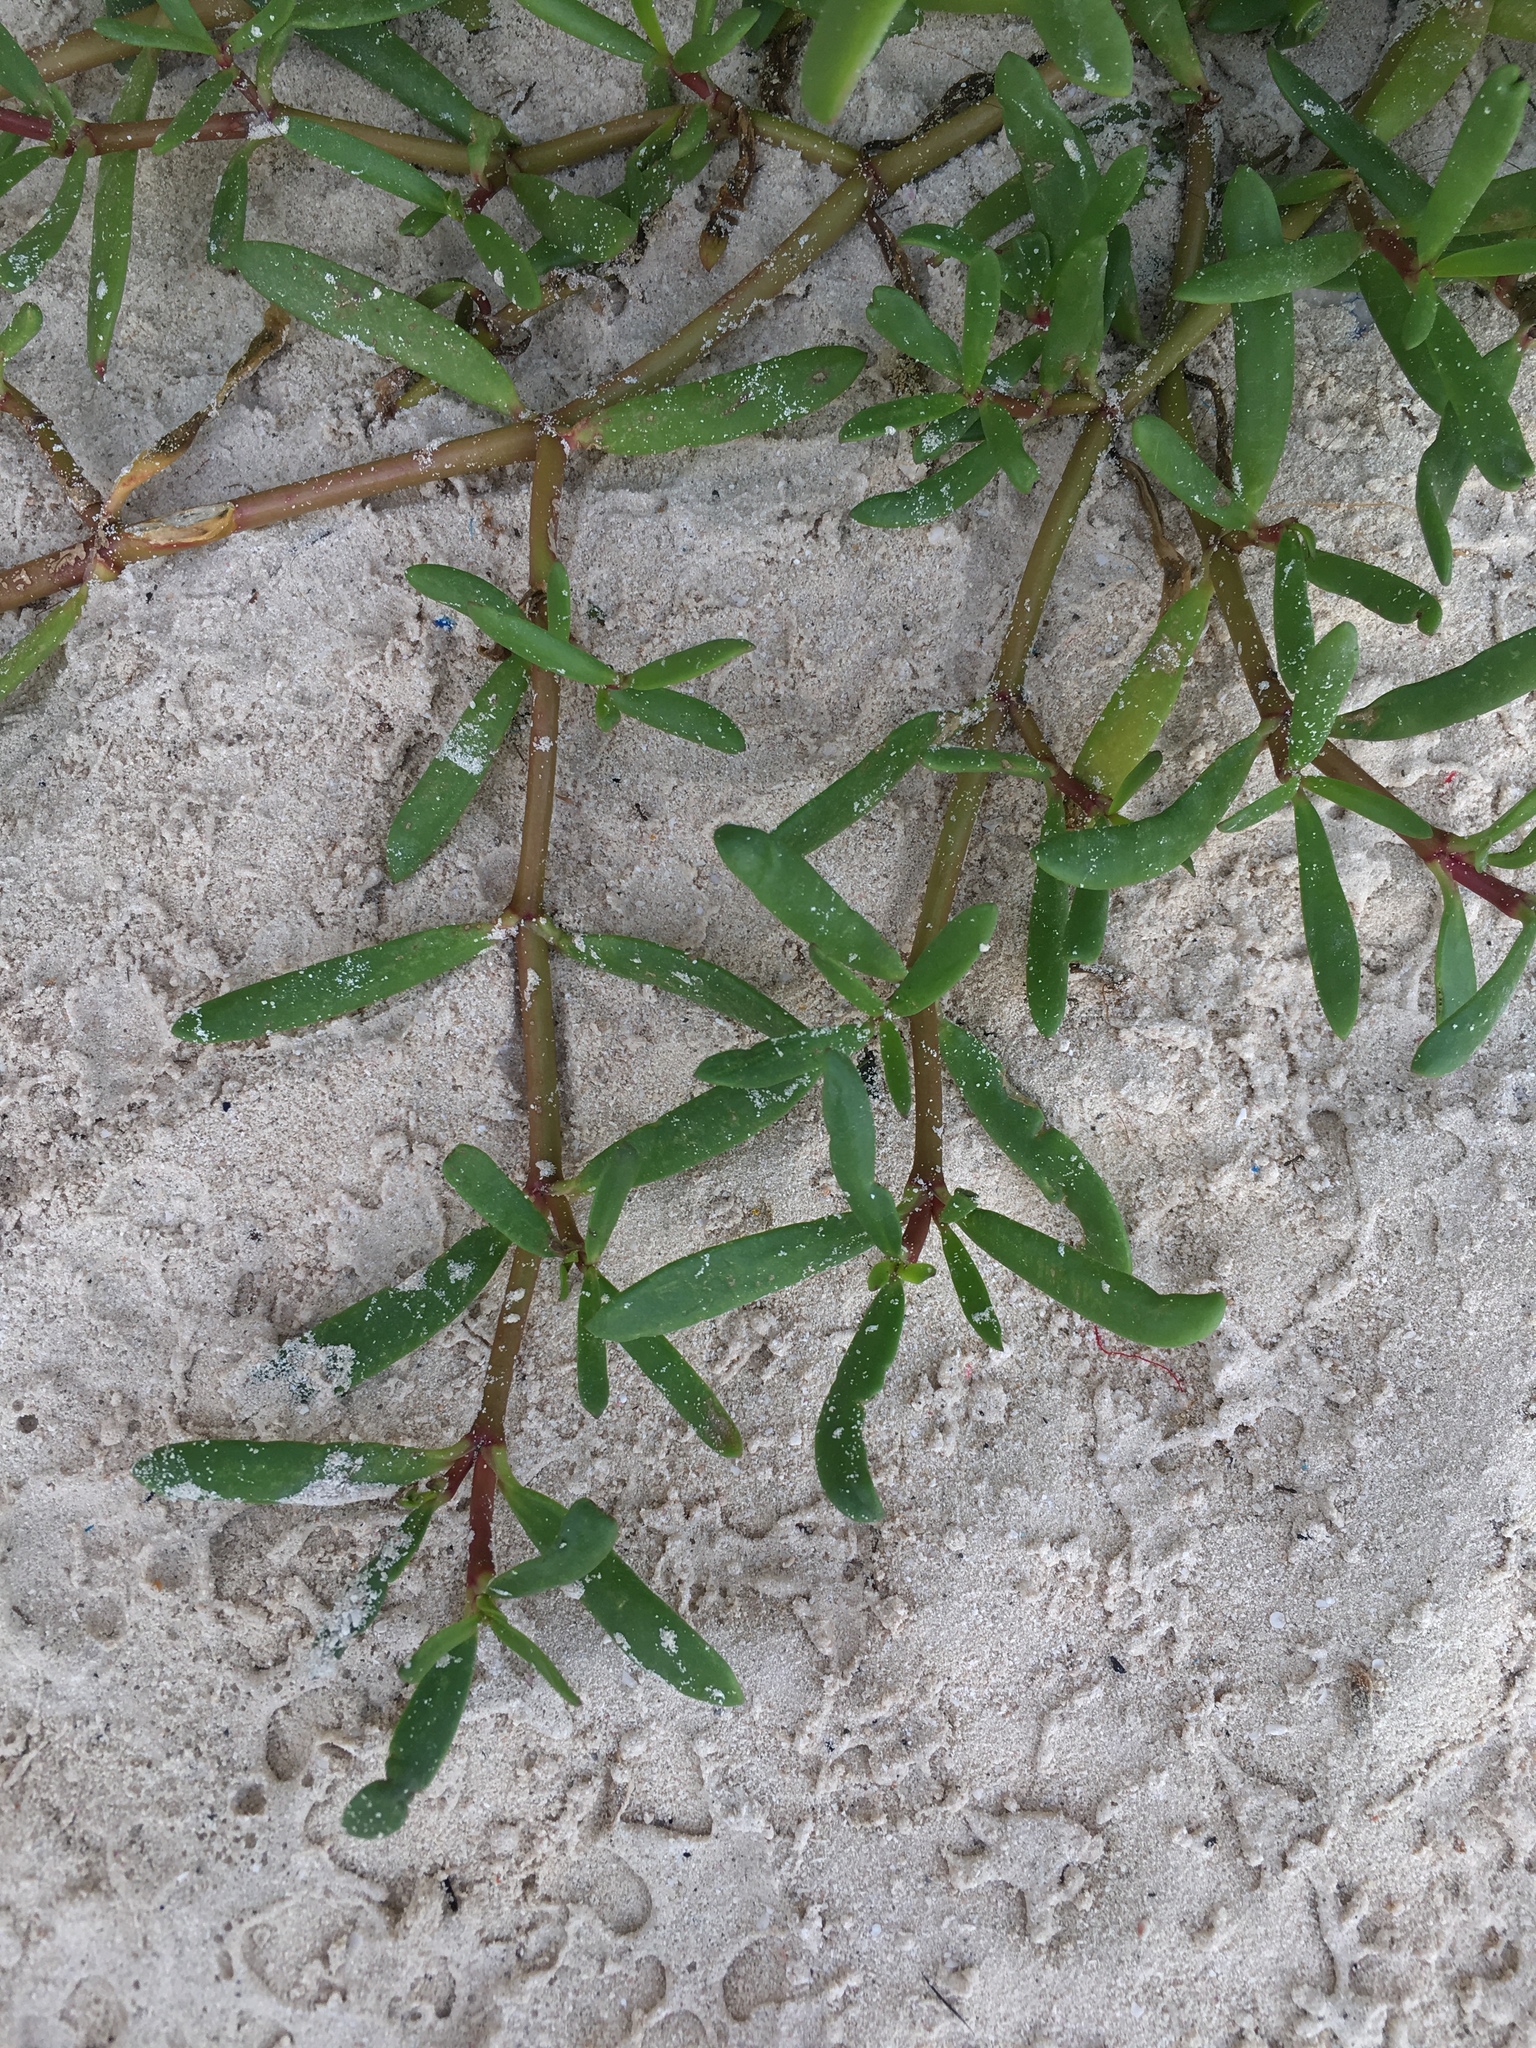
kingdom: Plantae
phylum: Tracheophyta
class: Magnoliopsida
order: Caryophyllales
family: Aizoaceae
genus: Sesuvium
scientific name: Sesuvium portulacastrum
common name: Sea-purslane
